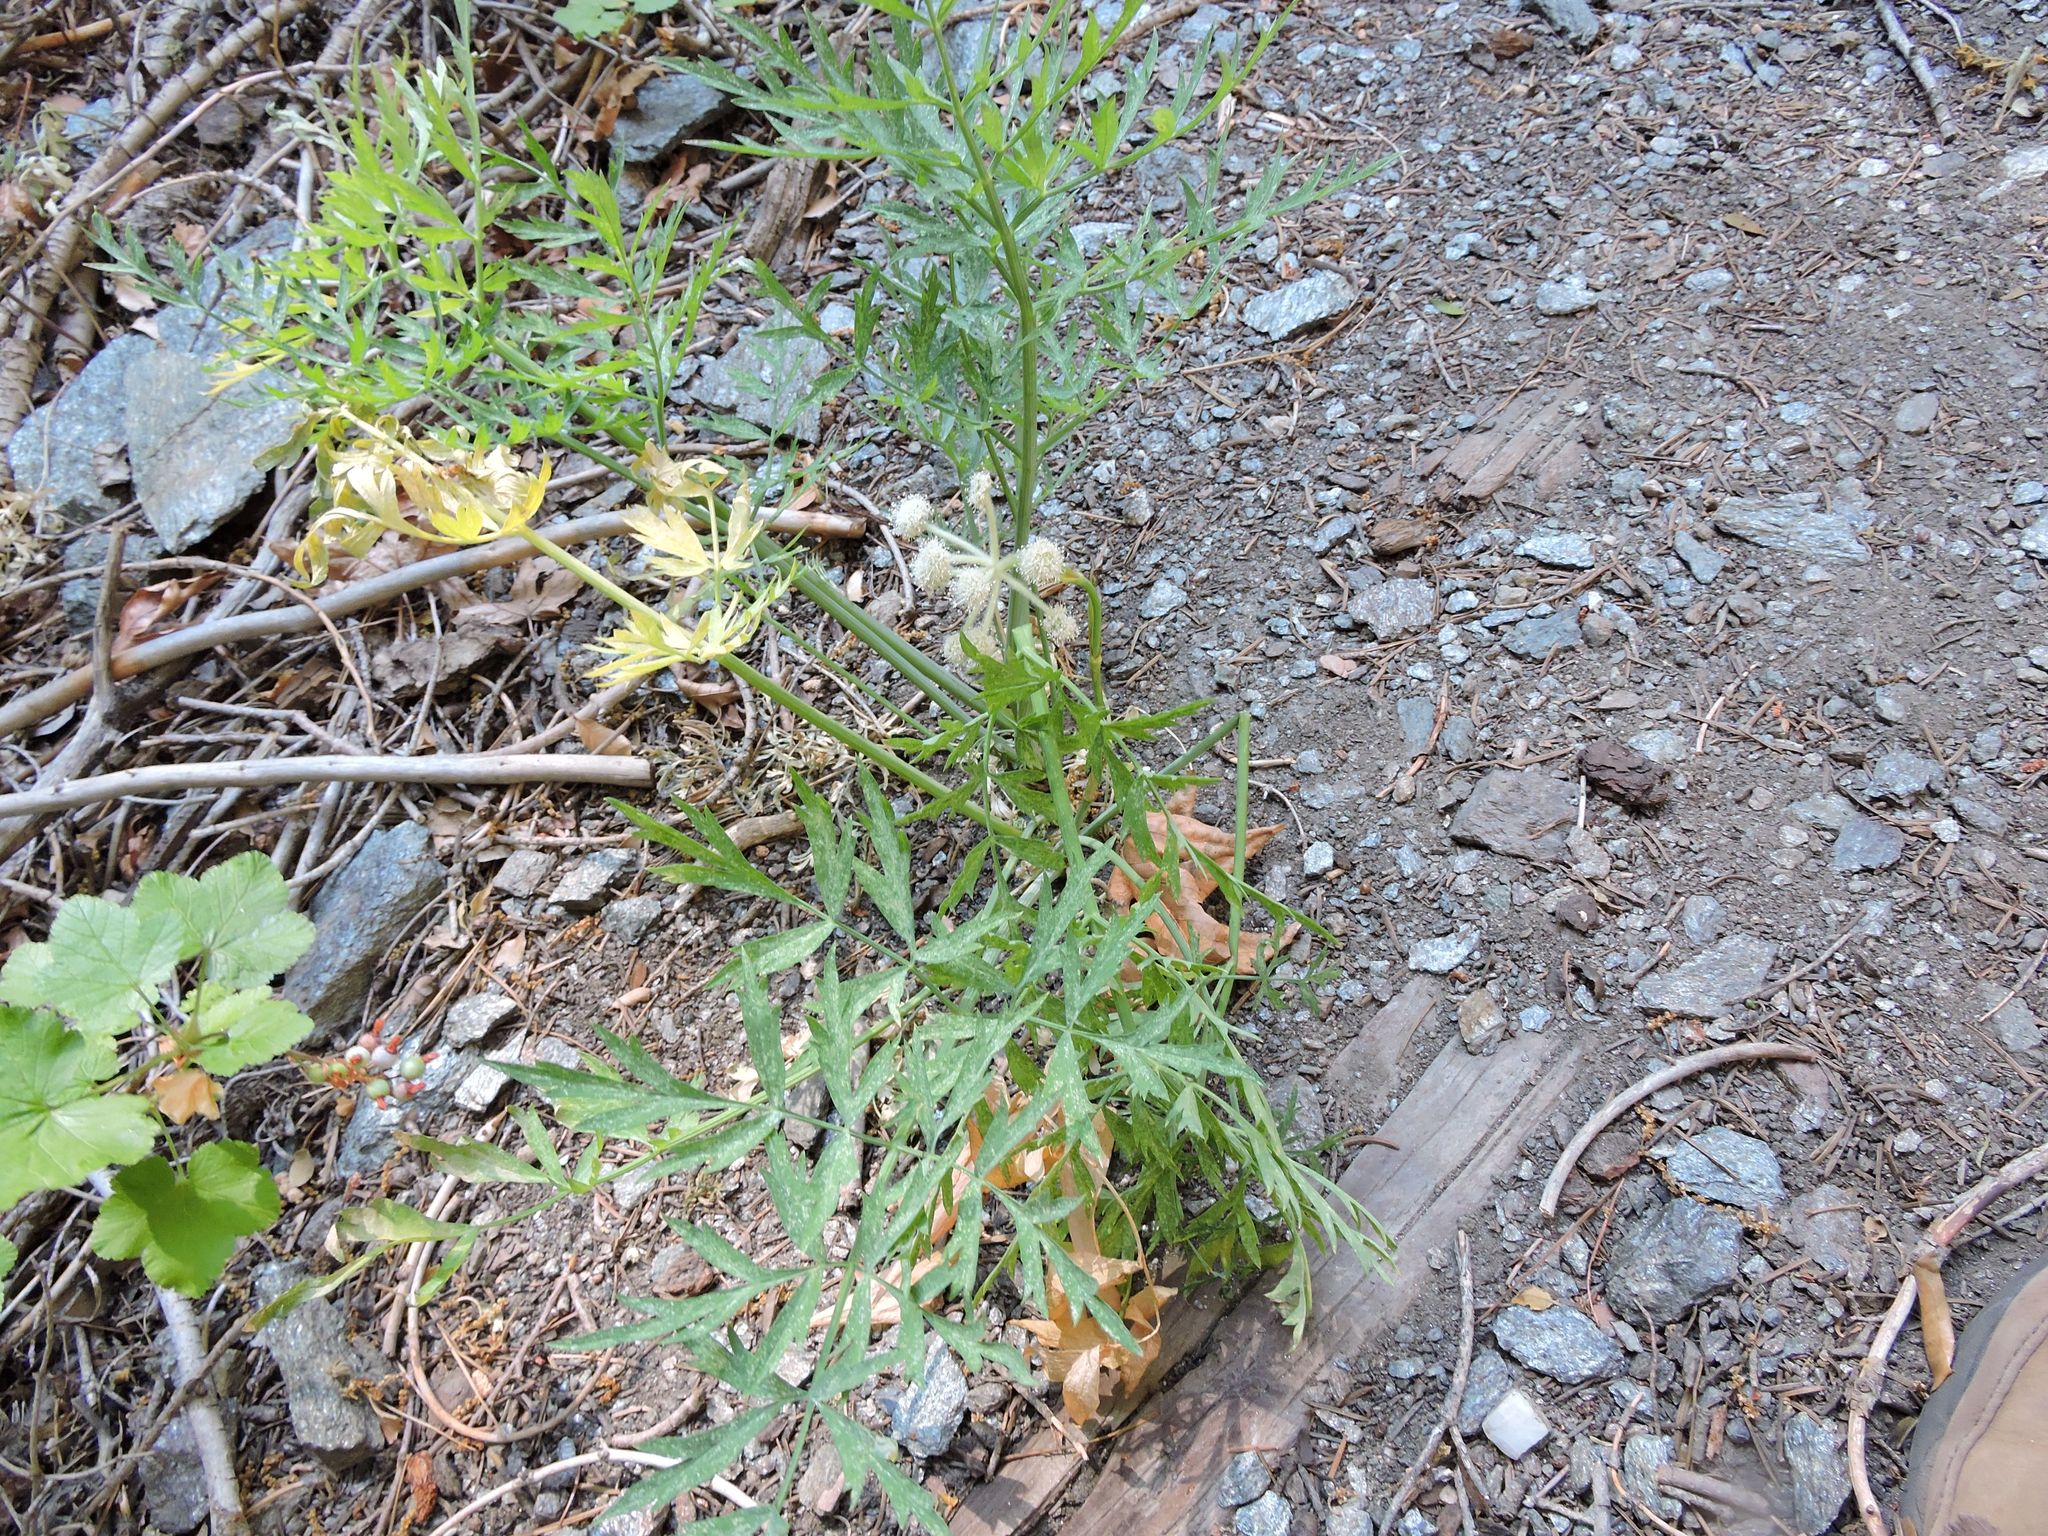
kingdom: Plantae
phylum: Tracheophyta
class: Magnoliopsida
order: Apiales
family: Apiaceae
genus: Angelica
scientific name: Angelica capitellata
